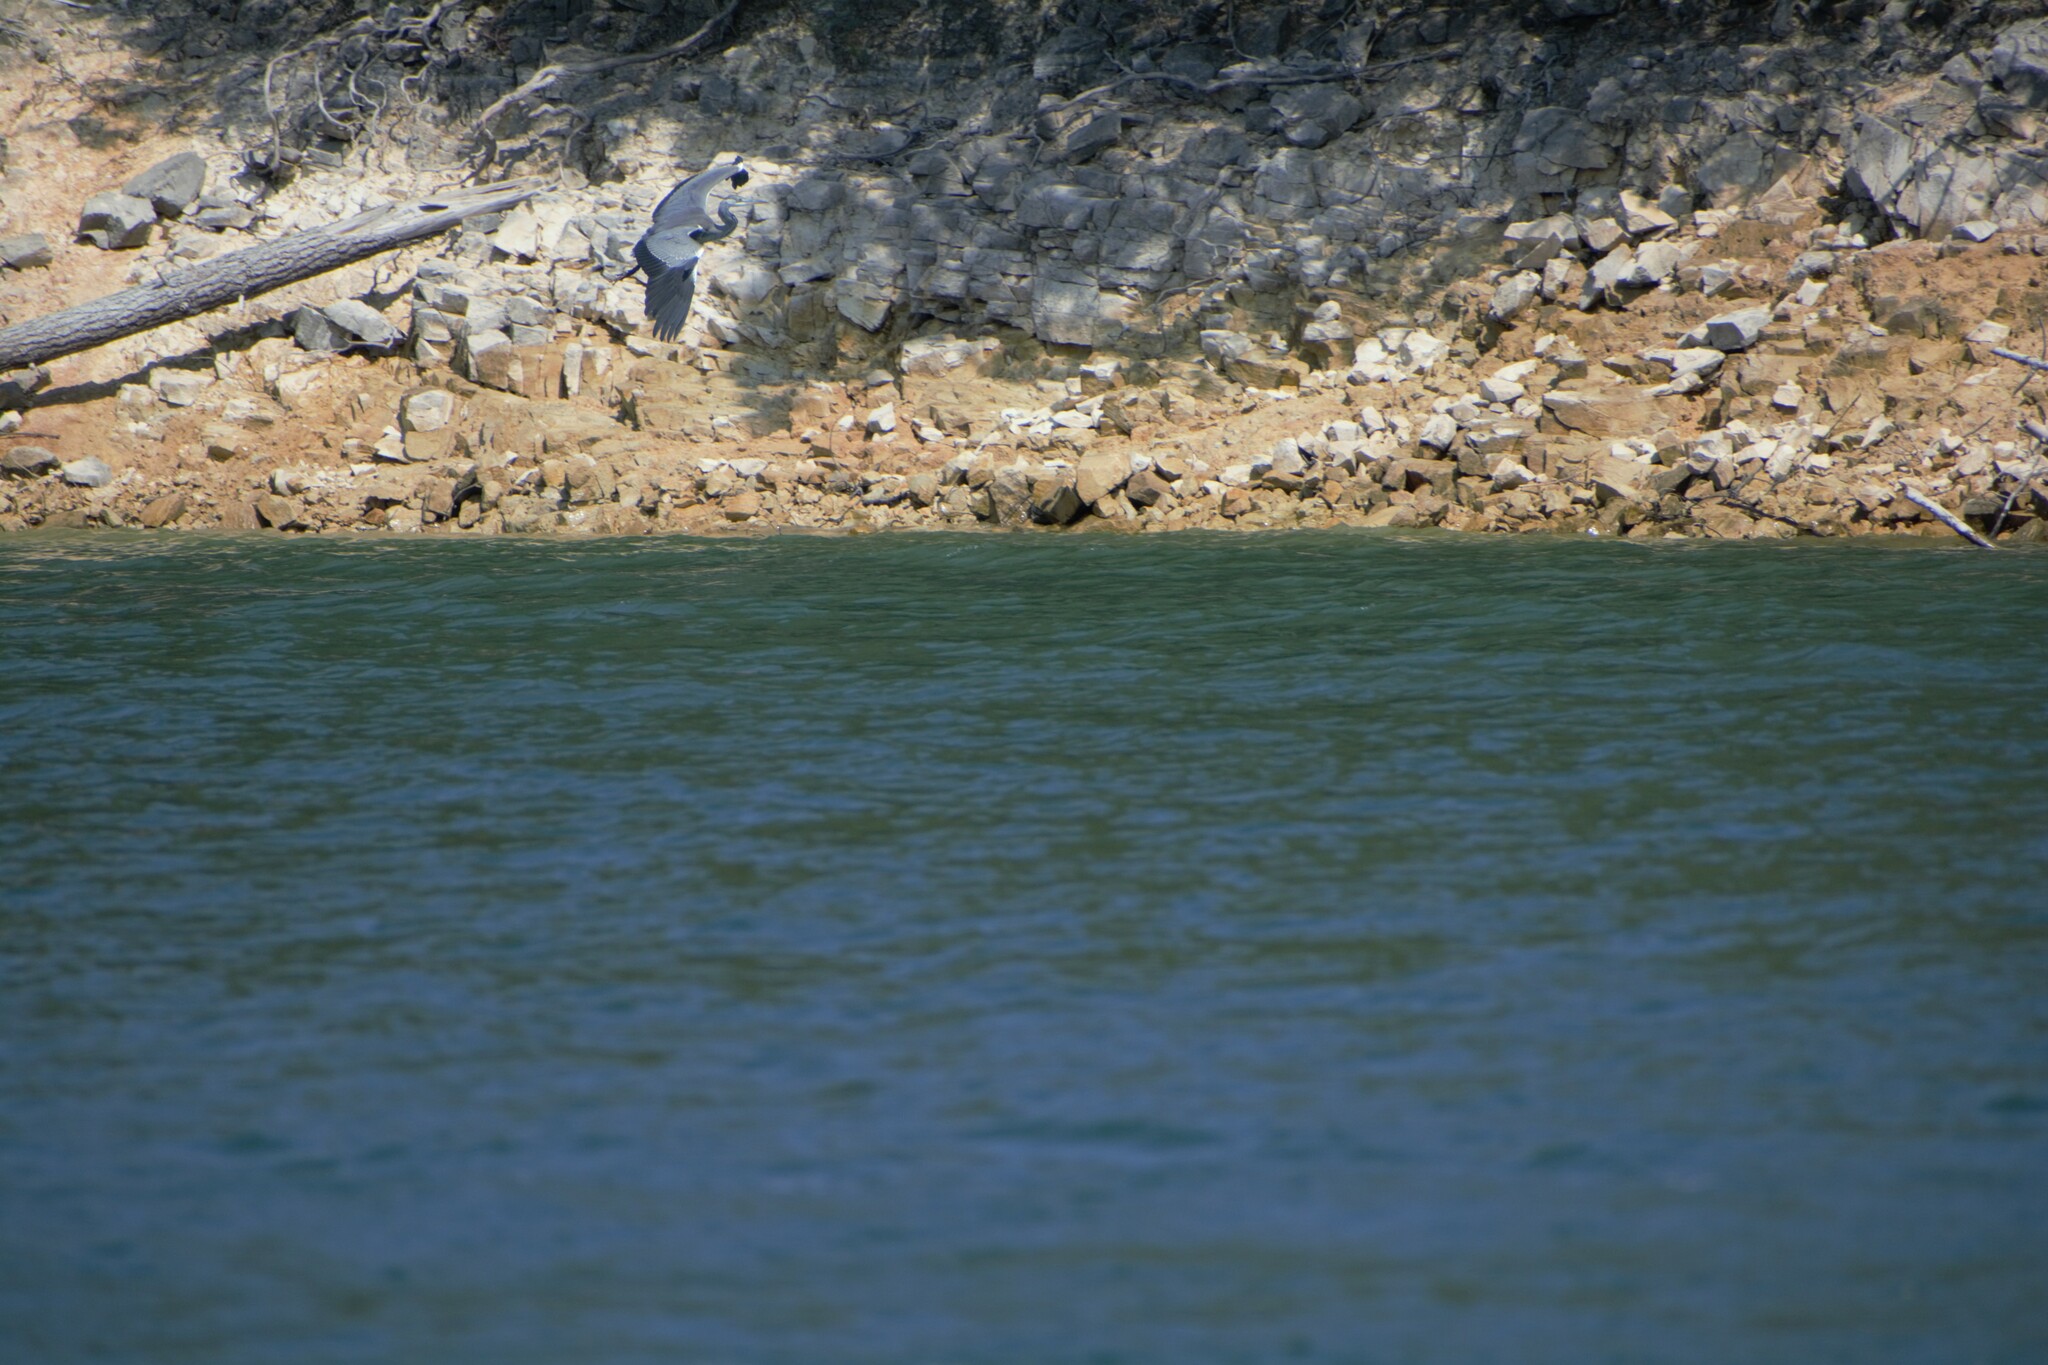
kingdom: Animalia
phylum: Chordata
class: Aves
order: Pelecaniformes
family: Ardeidae
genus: Ardea
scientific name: Ardea cinerea
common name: Grey heron
